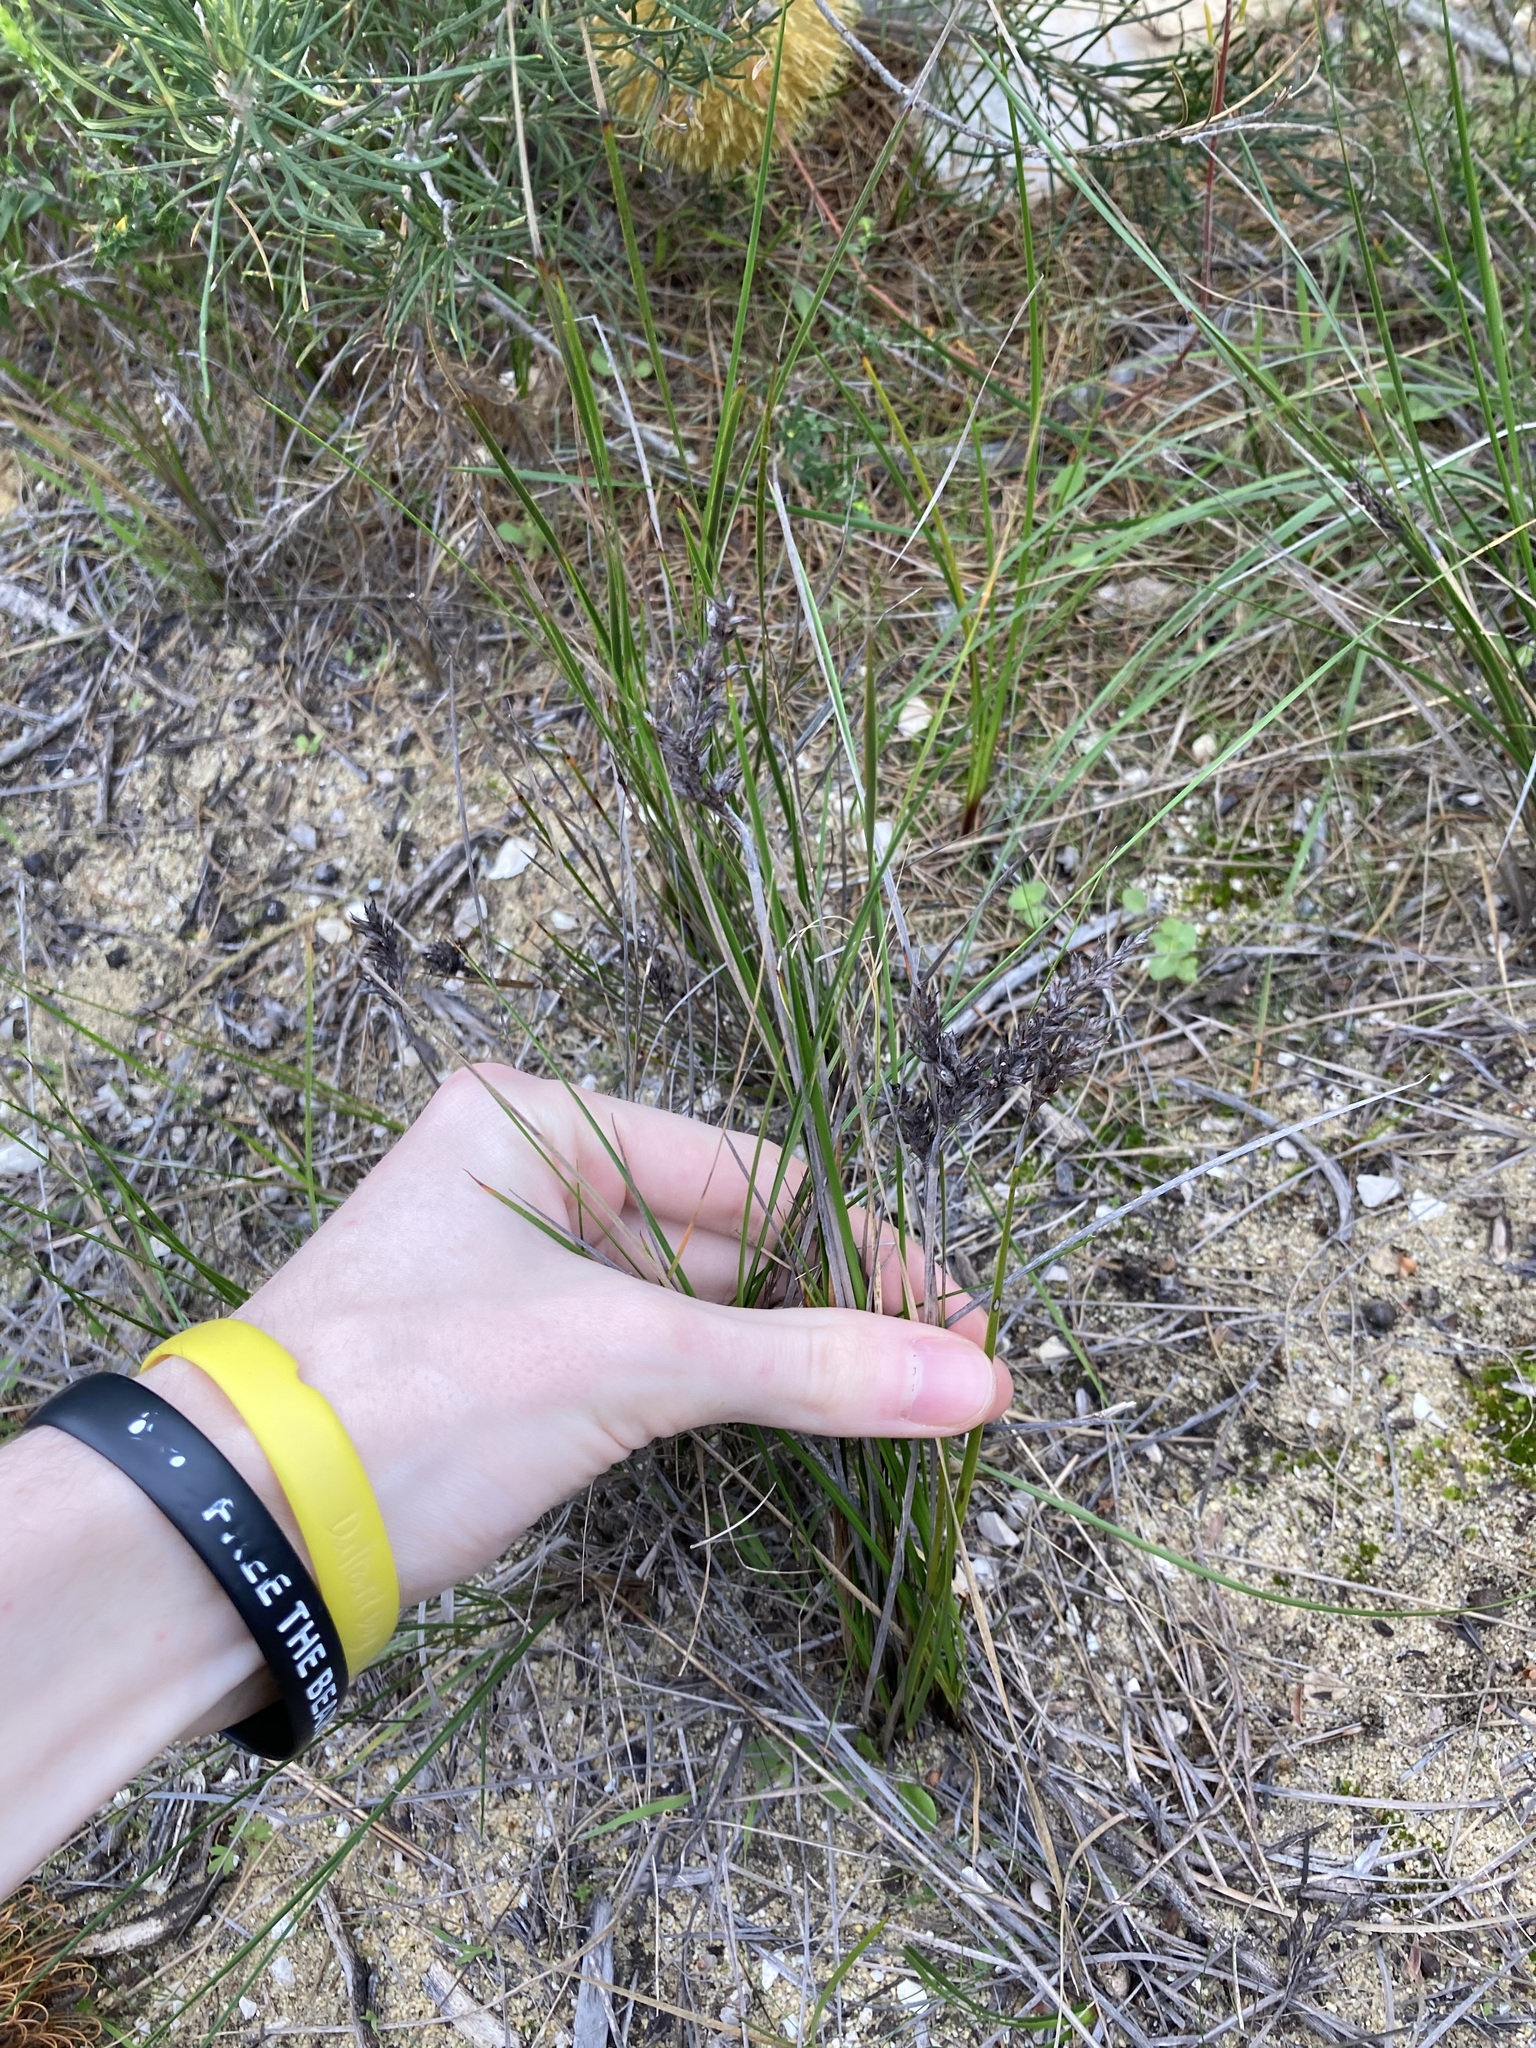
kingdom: Plantae
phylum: Tracheophyta
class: Liliopsida
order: Poales
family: Cyperaceae
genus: Lepidosperma
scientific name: Lepidosperma calcicola
